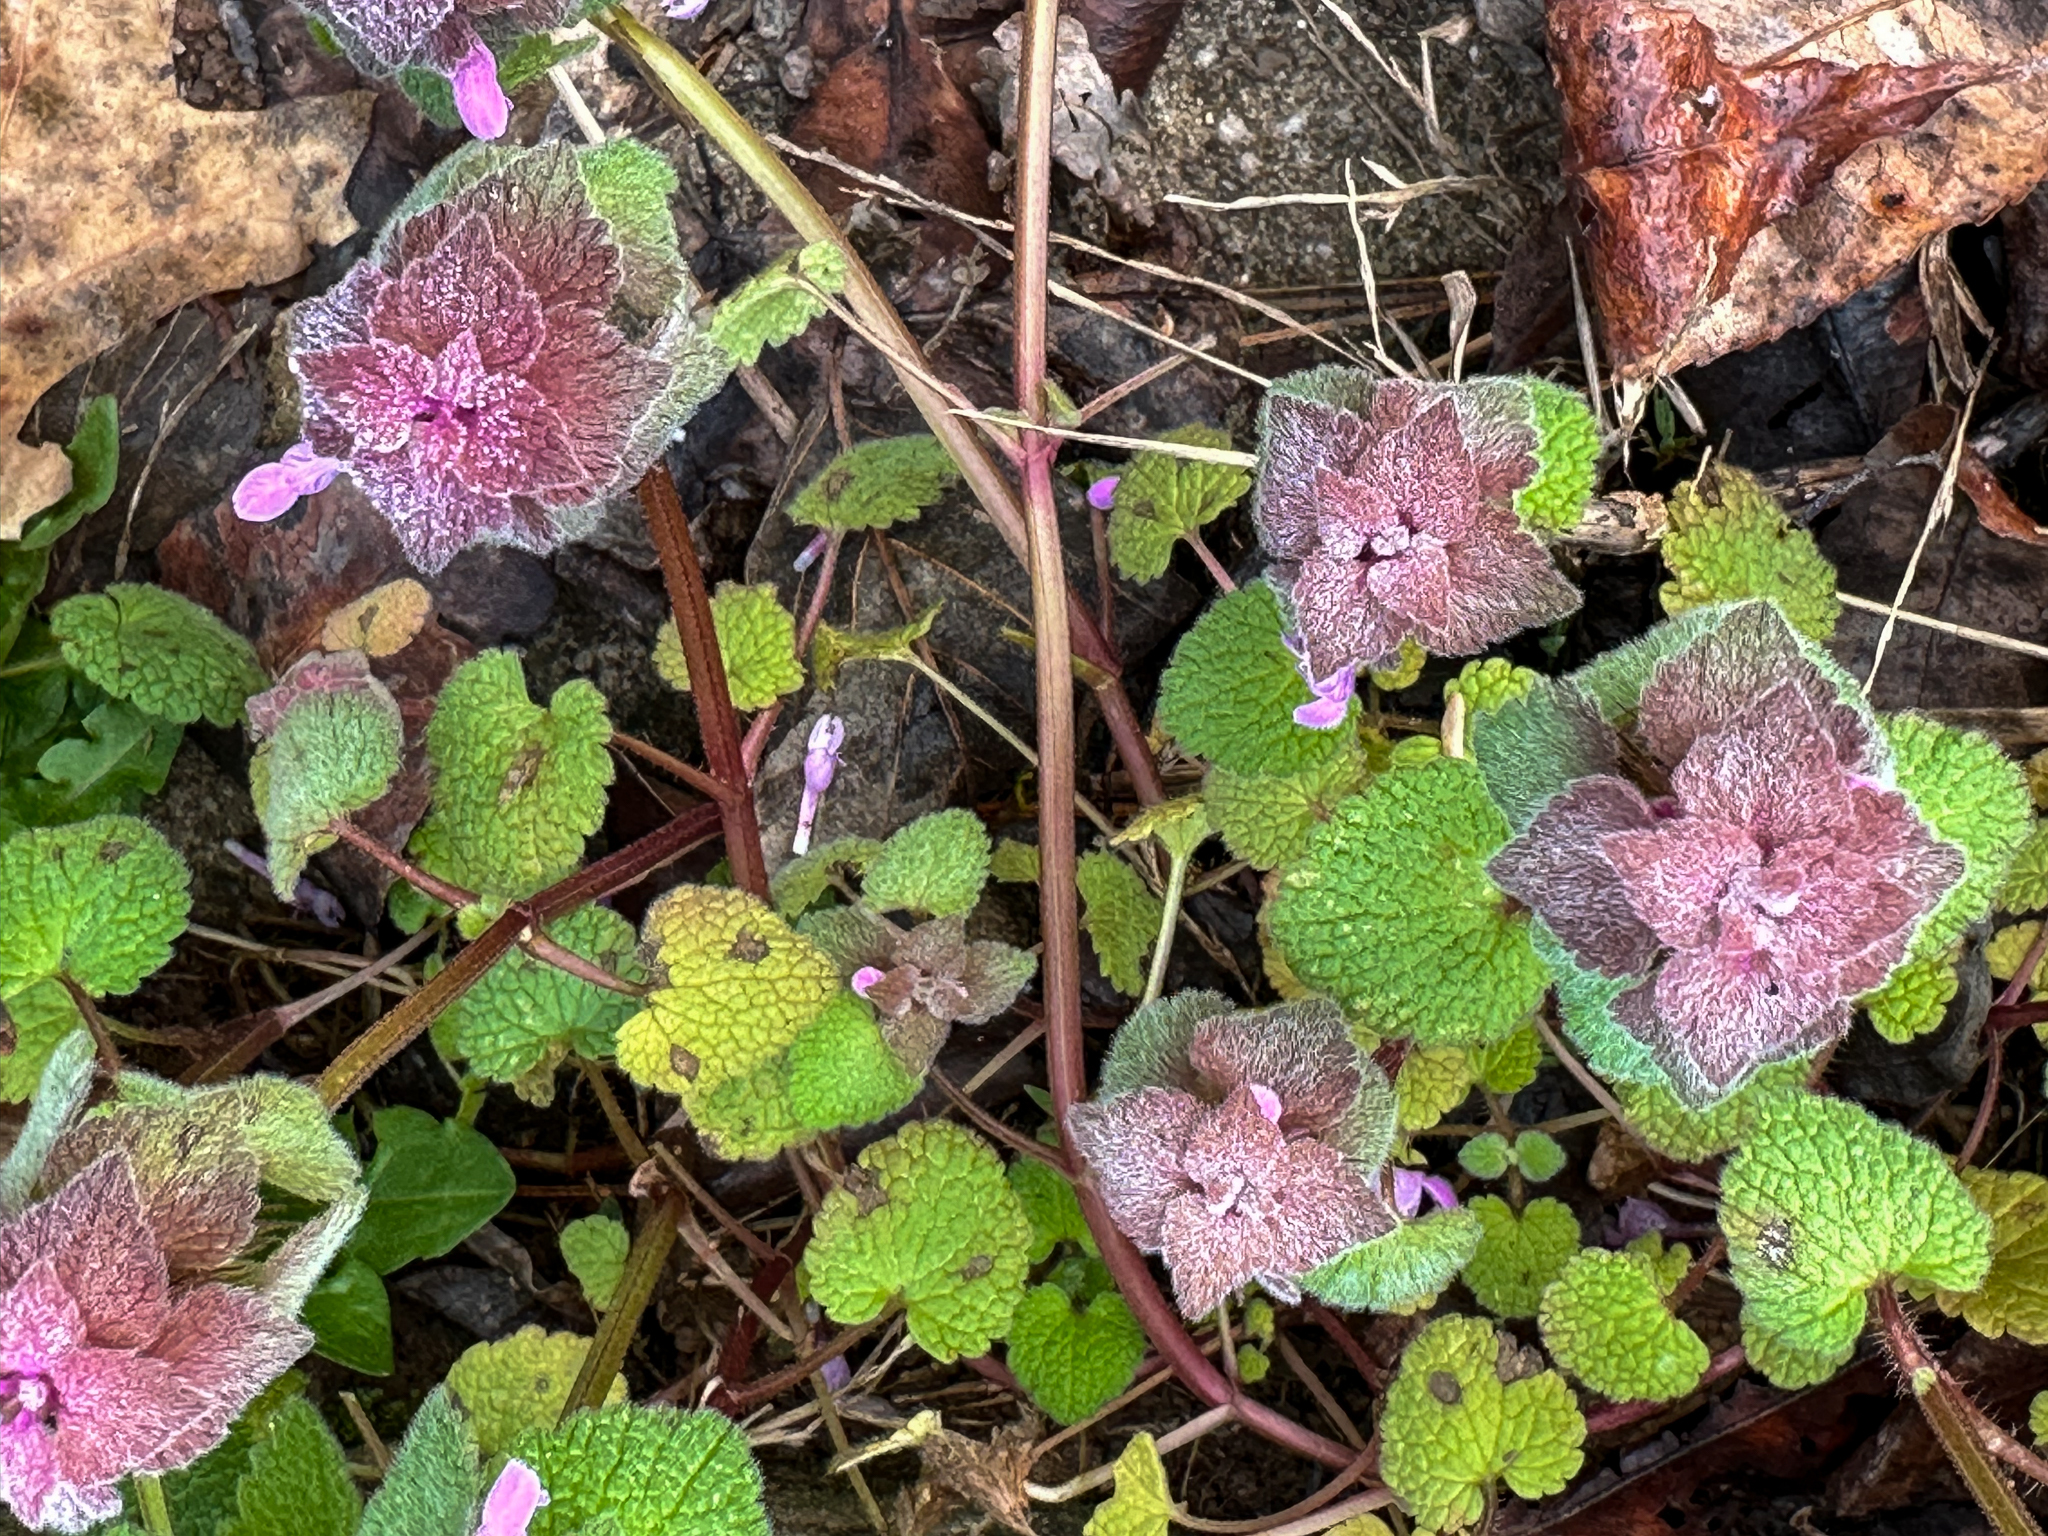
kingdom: Plantae
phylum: Tracheophyta
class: Magnoliopsida
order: Lamiales
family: Lamiaceae
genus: Lamium
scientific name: Lamium purpureum
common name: Red dead-nettle
